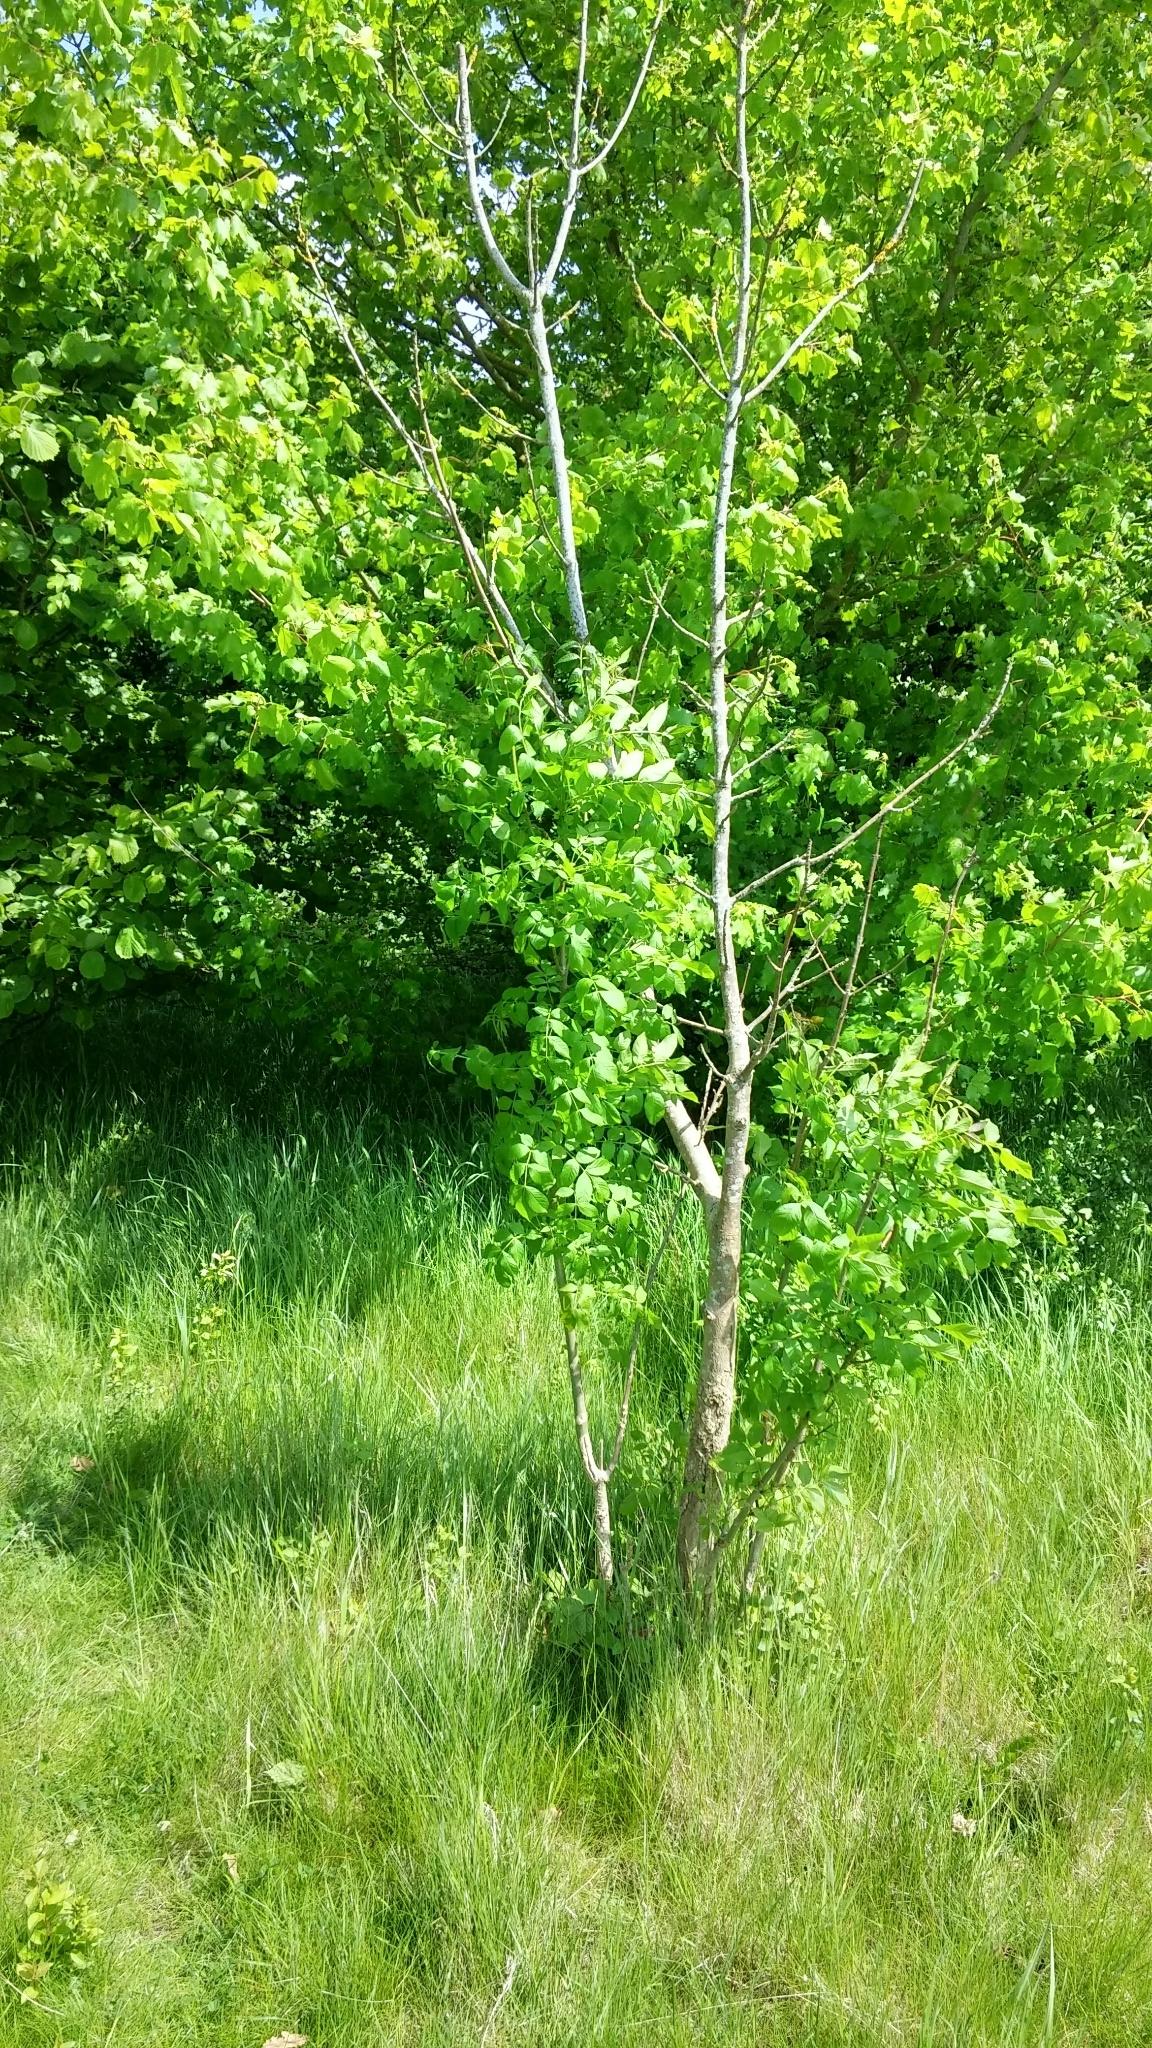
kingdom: Plantae
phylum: Tracheophyta
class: Magnoliopsida
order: Lamiales
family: Oleaceae
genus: Fraxinus
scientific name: Fraxinus excelsior
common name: European ash
